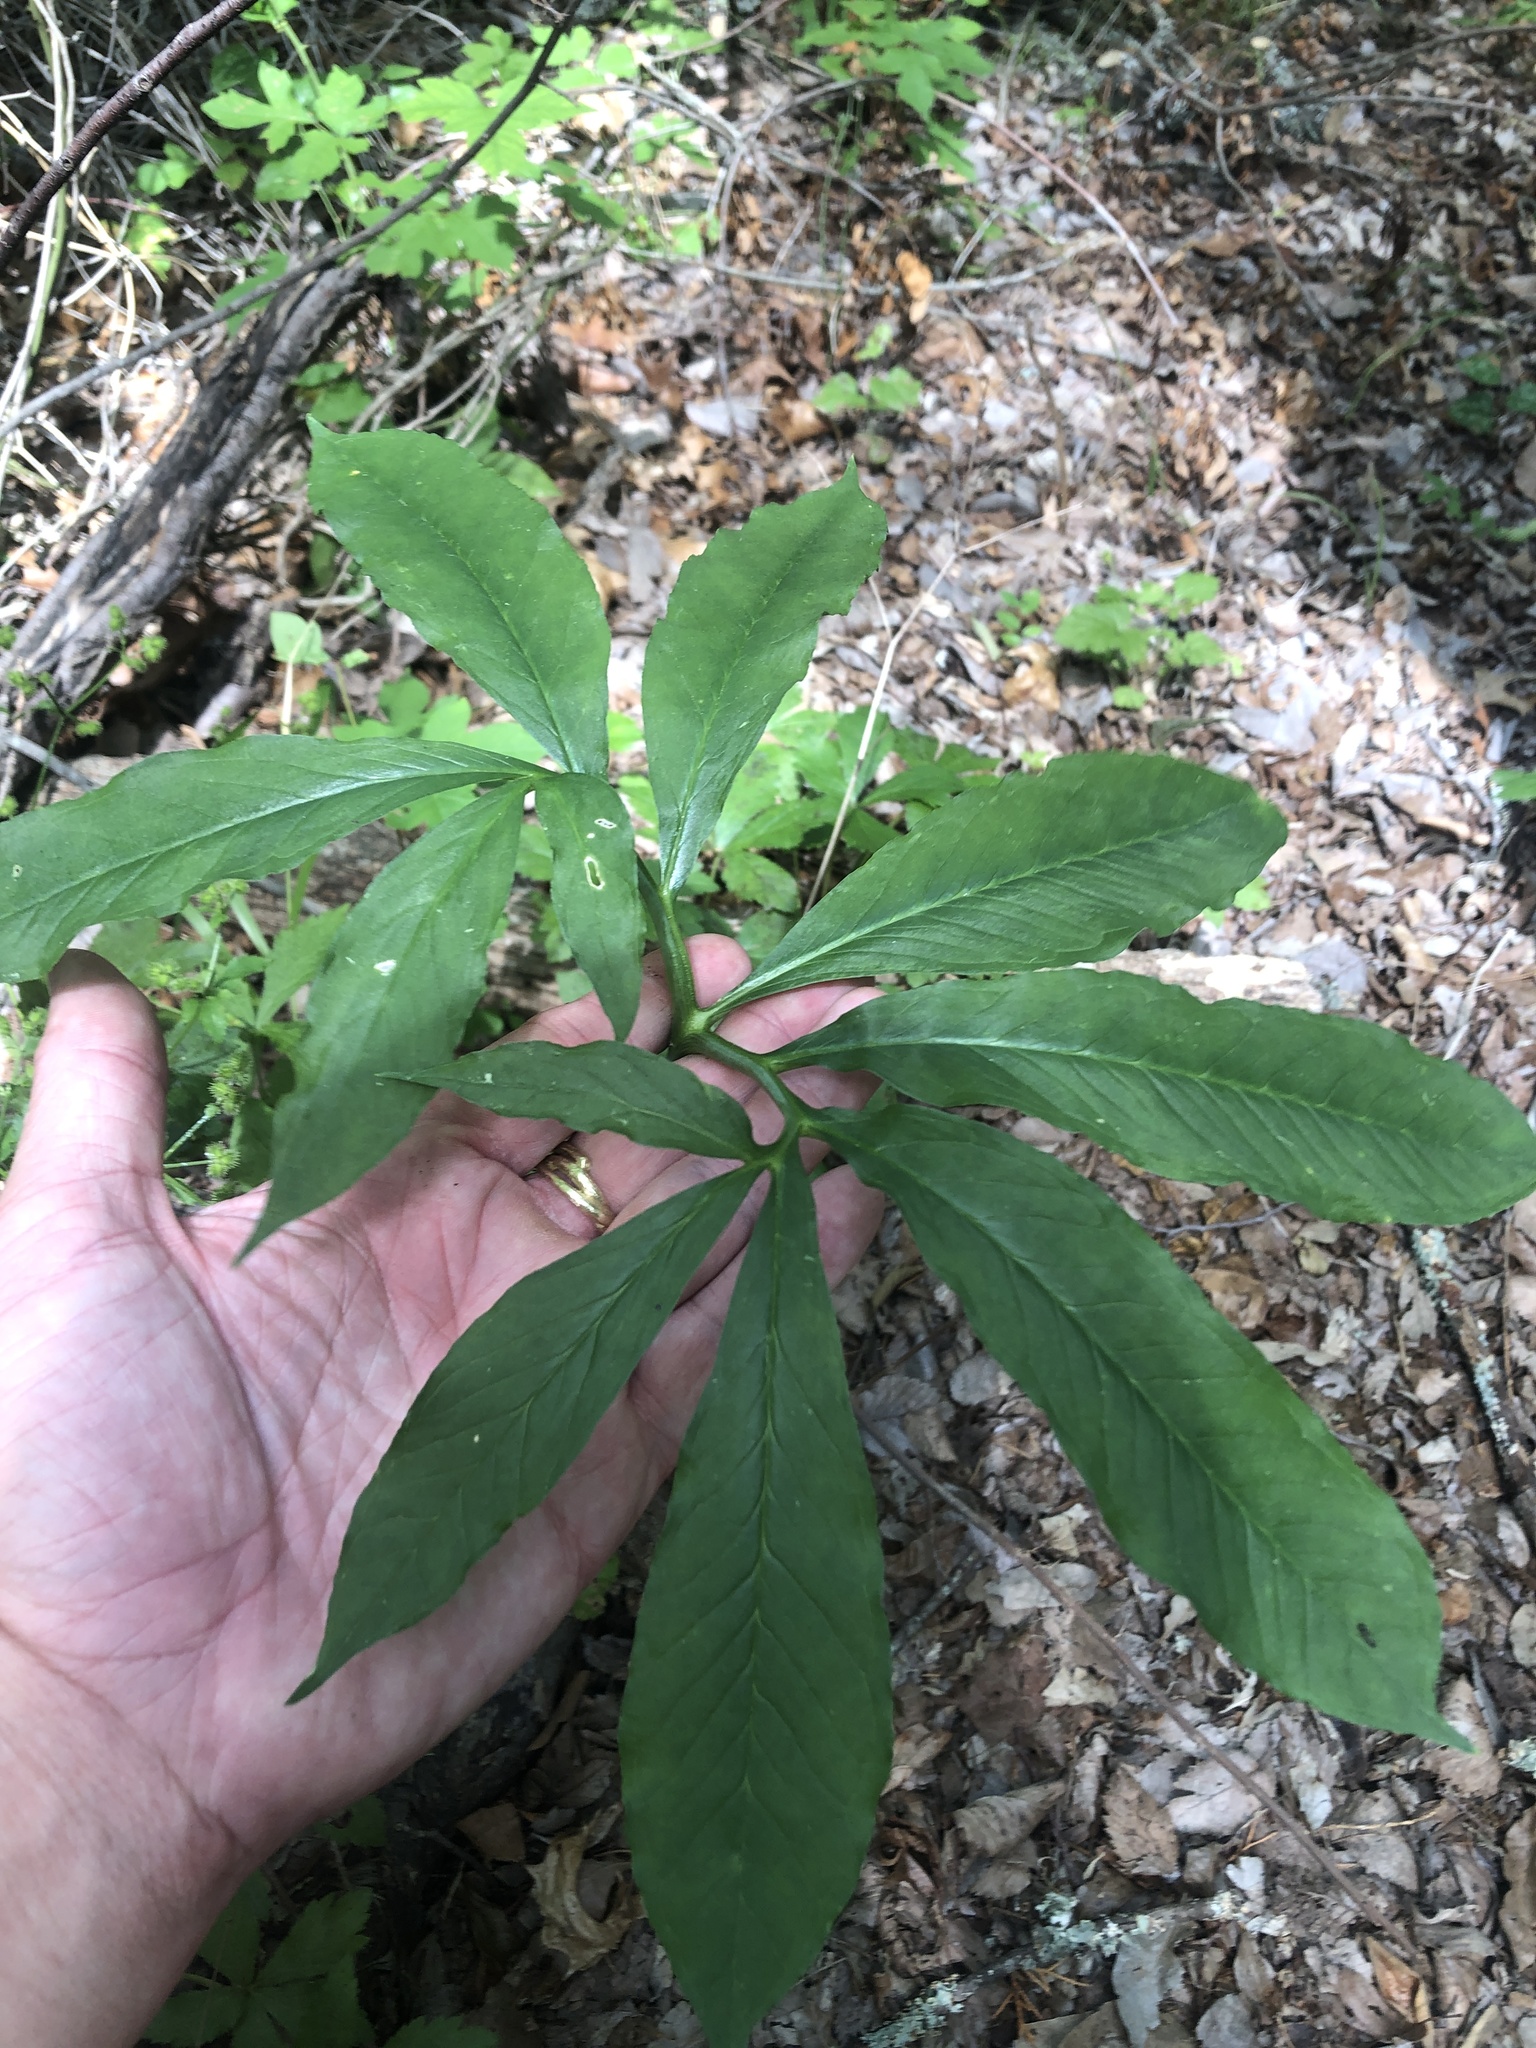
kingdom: Plantae
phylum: Tracheophyta
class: Liliopsida
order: Alismatales
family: Araceae
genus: Arisaema
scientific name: Arisaema dracontium
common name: Dragon-arum
